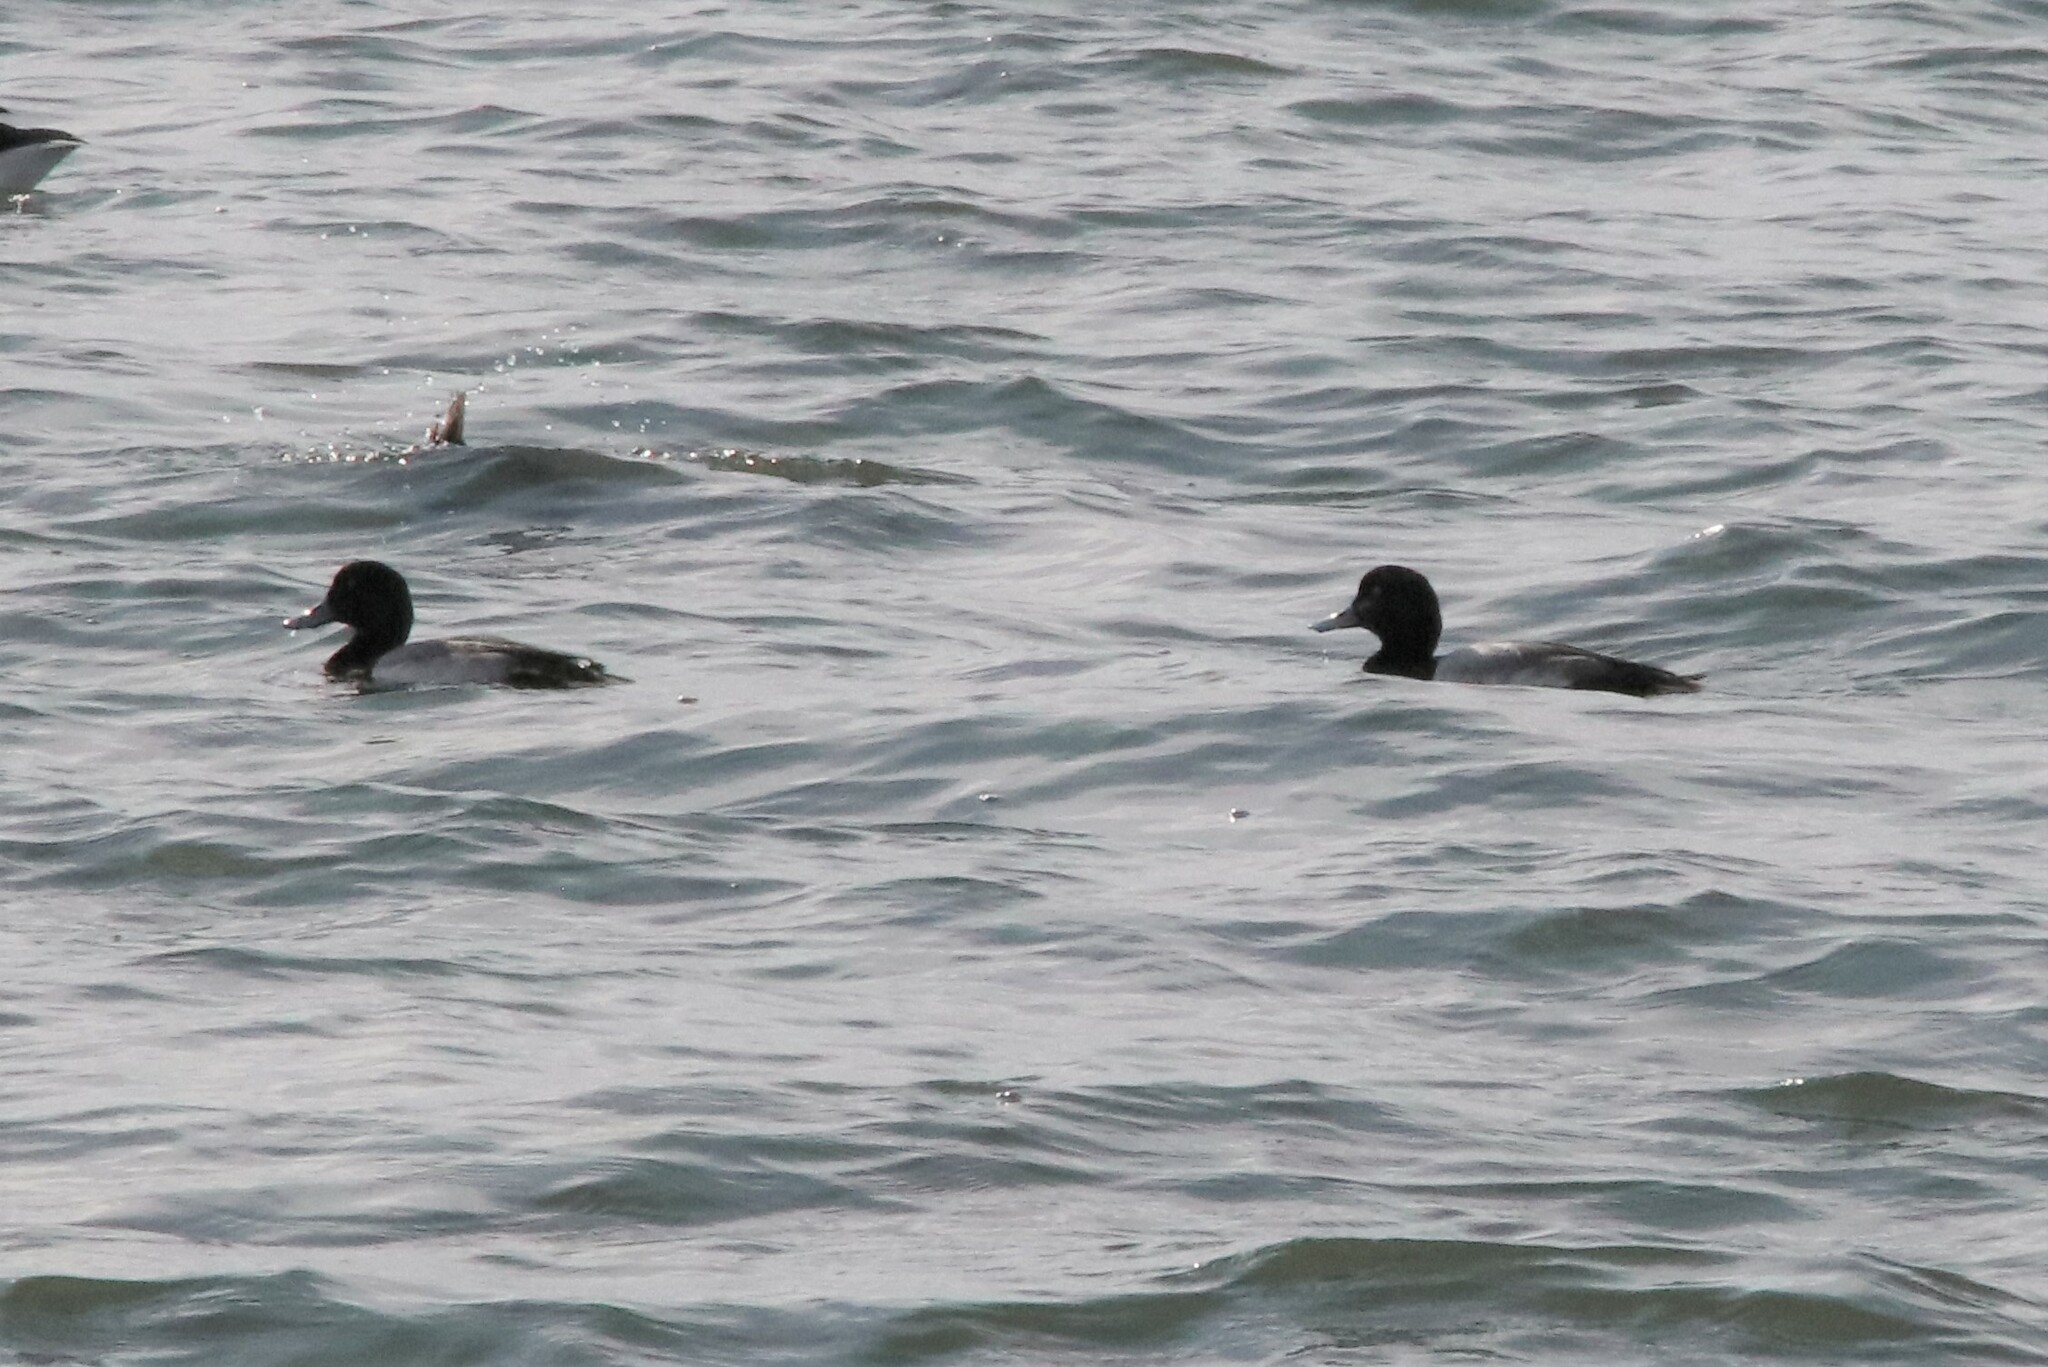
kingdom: Animalia
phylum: Chordata
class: Aves
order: Anseriformes
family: Anatidae
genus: Aythya
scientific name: Aythya marila
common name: Greater scaup
